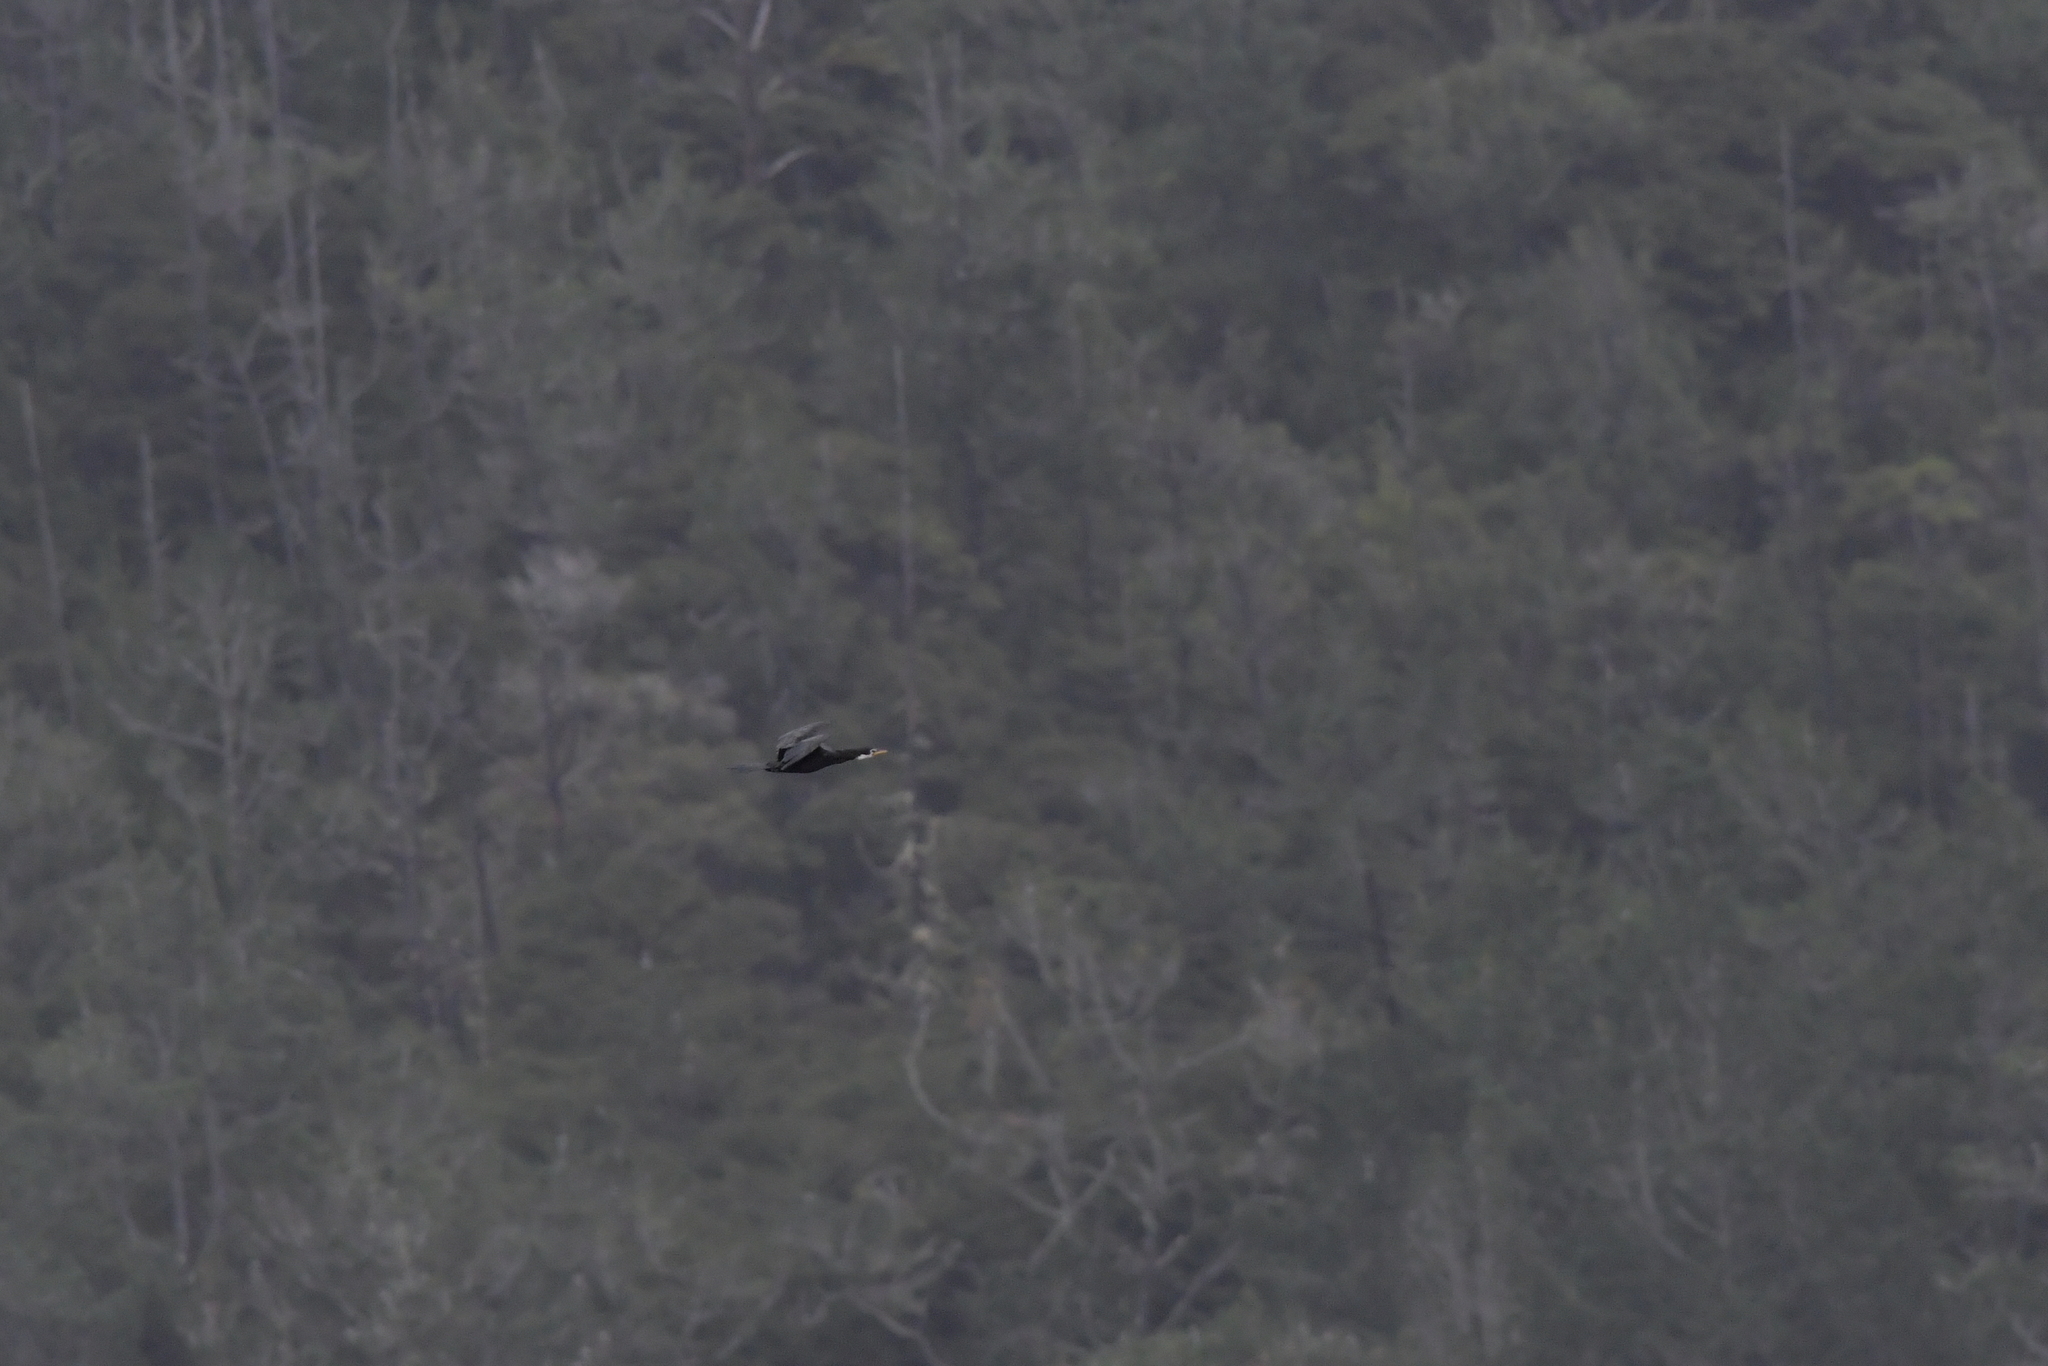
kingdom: Animalia
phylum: Chordata
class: Aves
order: Suliformes
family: Phalacrocoracidae
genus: Microcarbo
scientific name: Microcarbo melanoleucos
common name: Little pied cormorant
